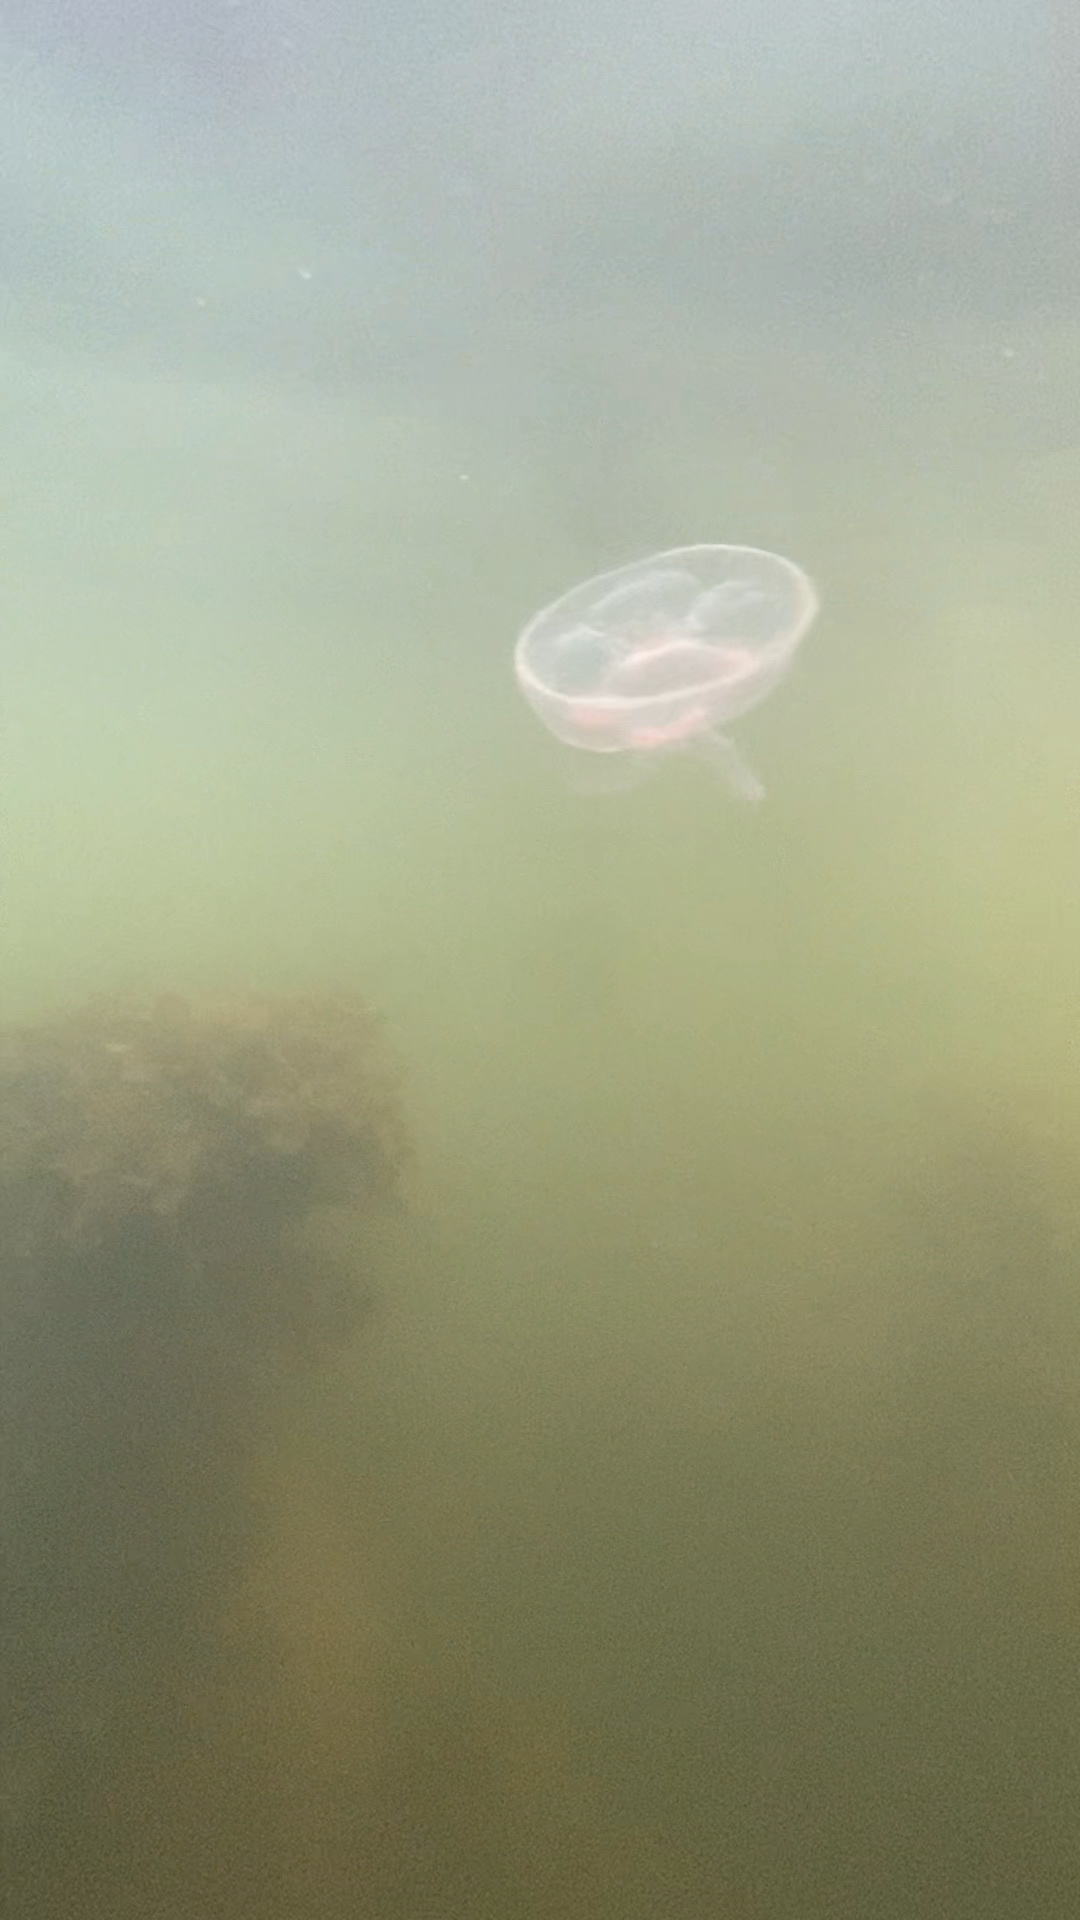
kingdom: Animalia
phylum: Cnidaria
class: Scyphozoa
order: Semaeostomeae
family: Ulmaridae
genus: Aurelia
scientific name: Aurelia aurita
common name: Moon jellyfish
